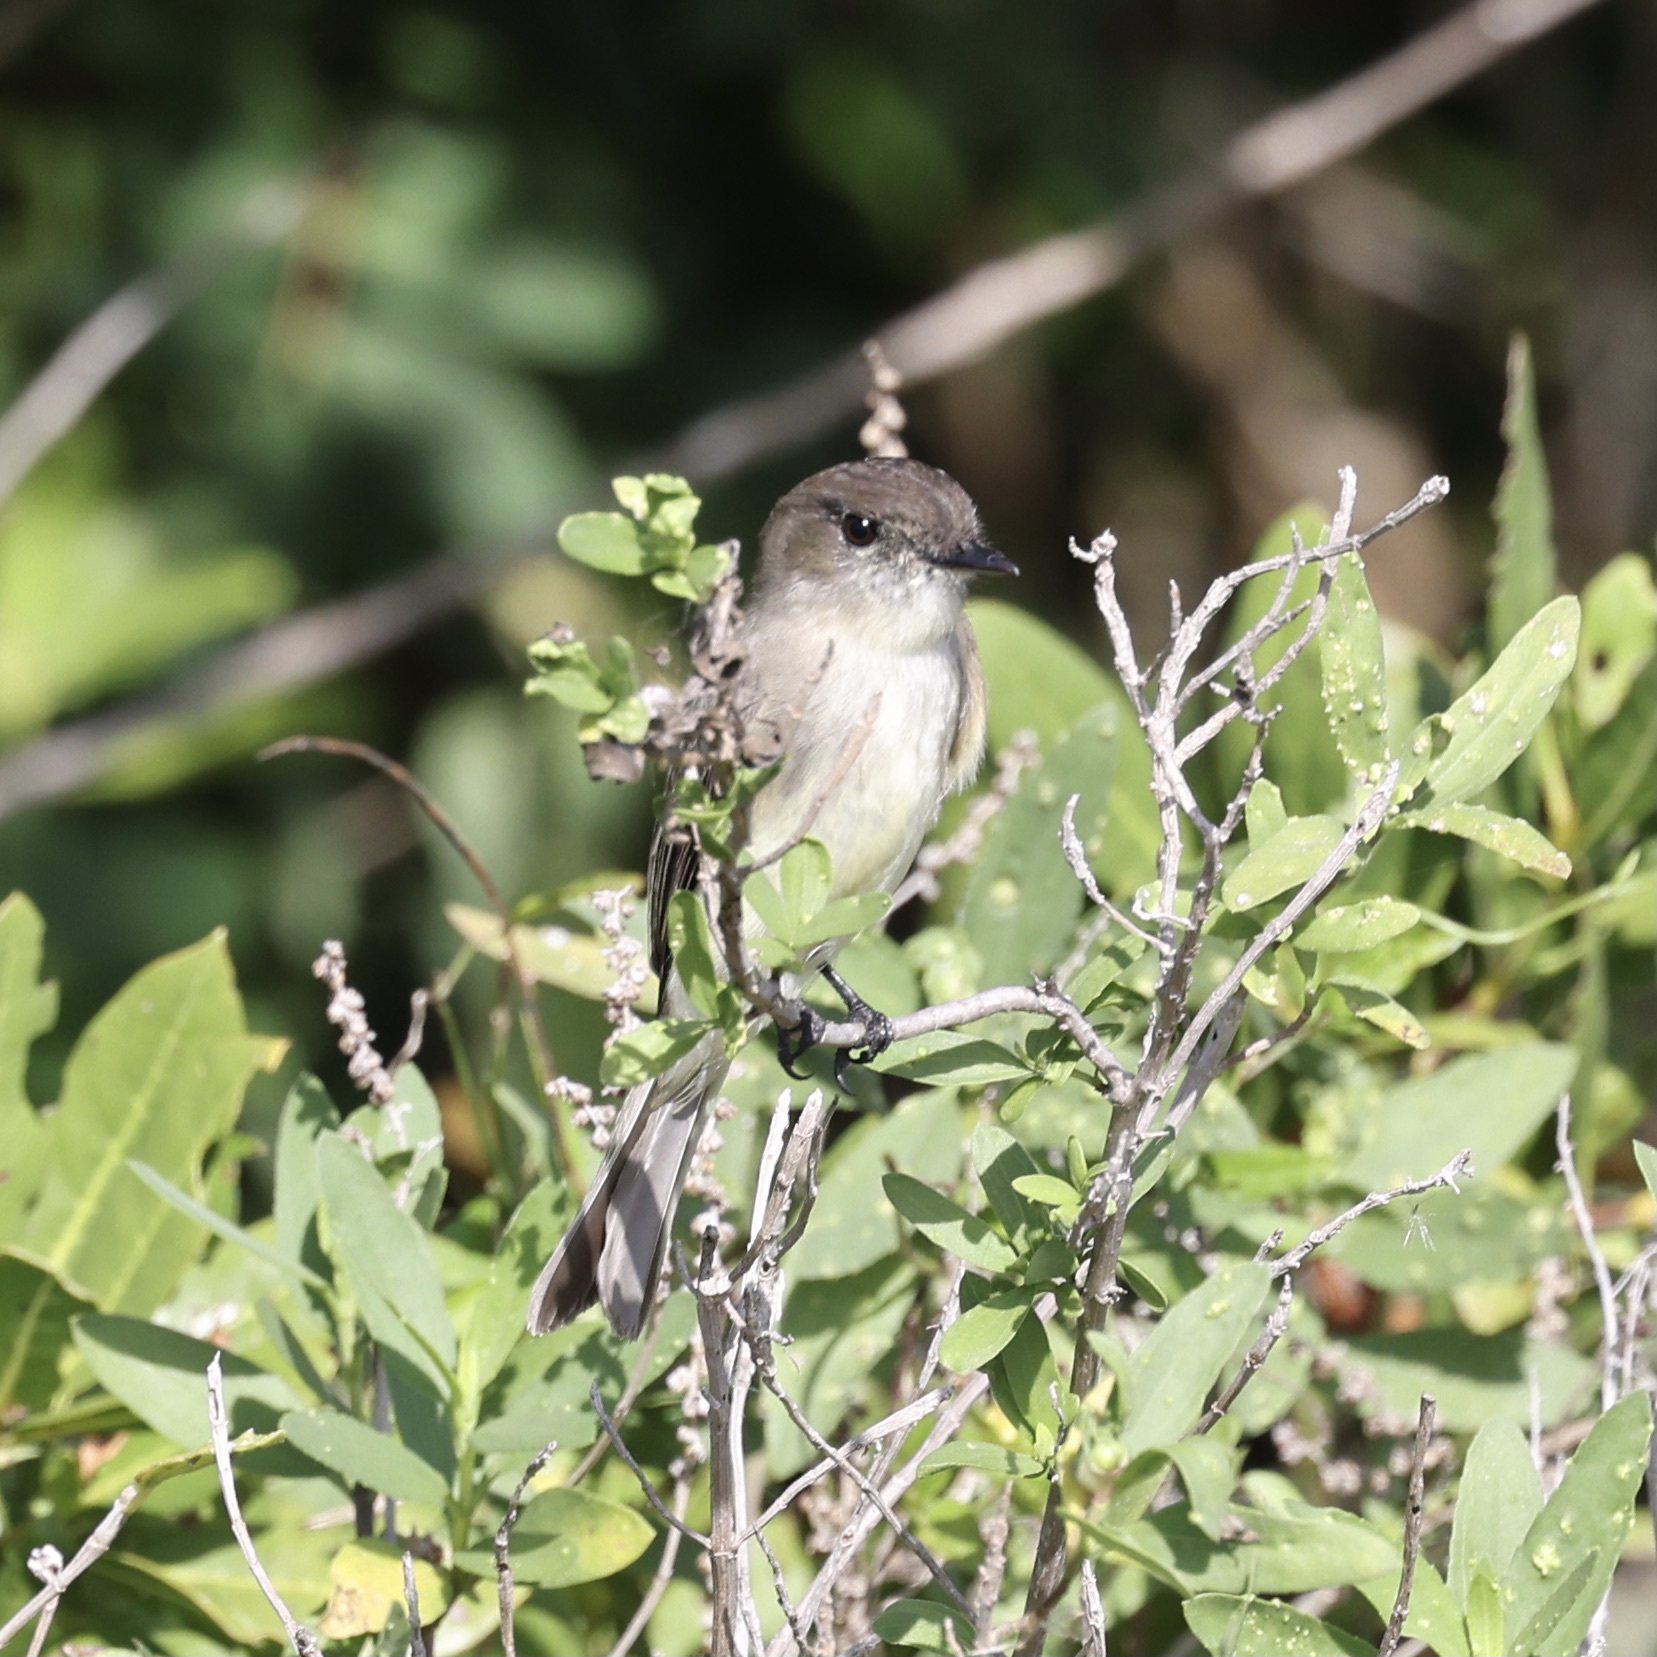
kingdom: Animalia
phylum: Chordata
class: Aves
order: Passeriformes
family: Tyrannidae
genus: Sayornis
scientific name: Sayornis phoebe
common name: Eastern phoebe
